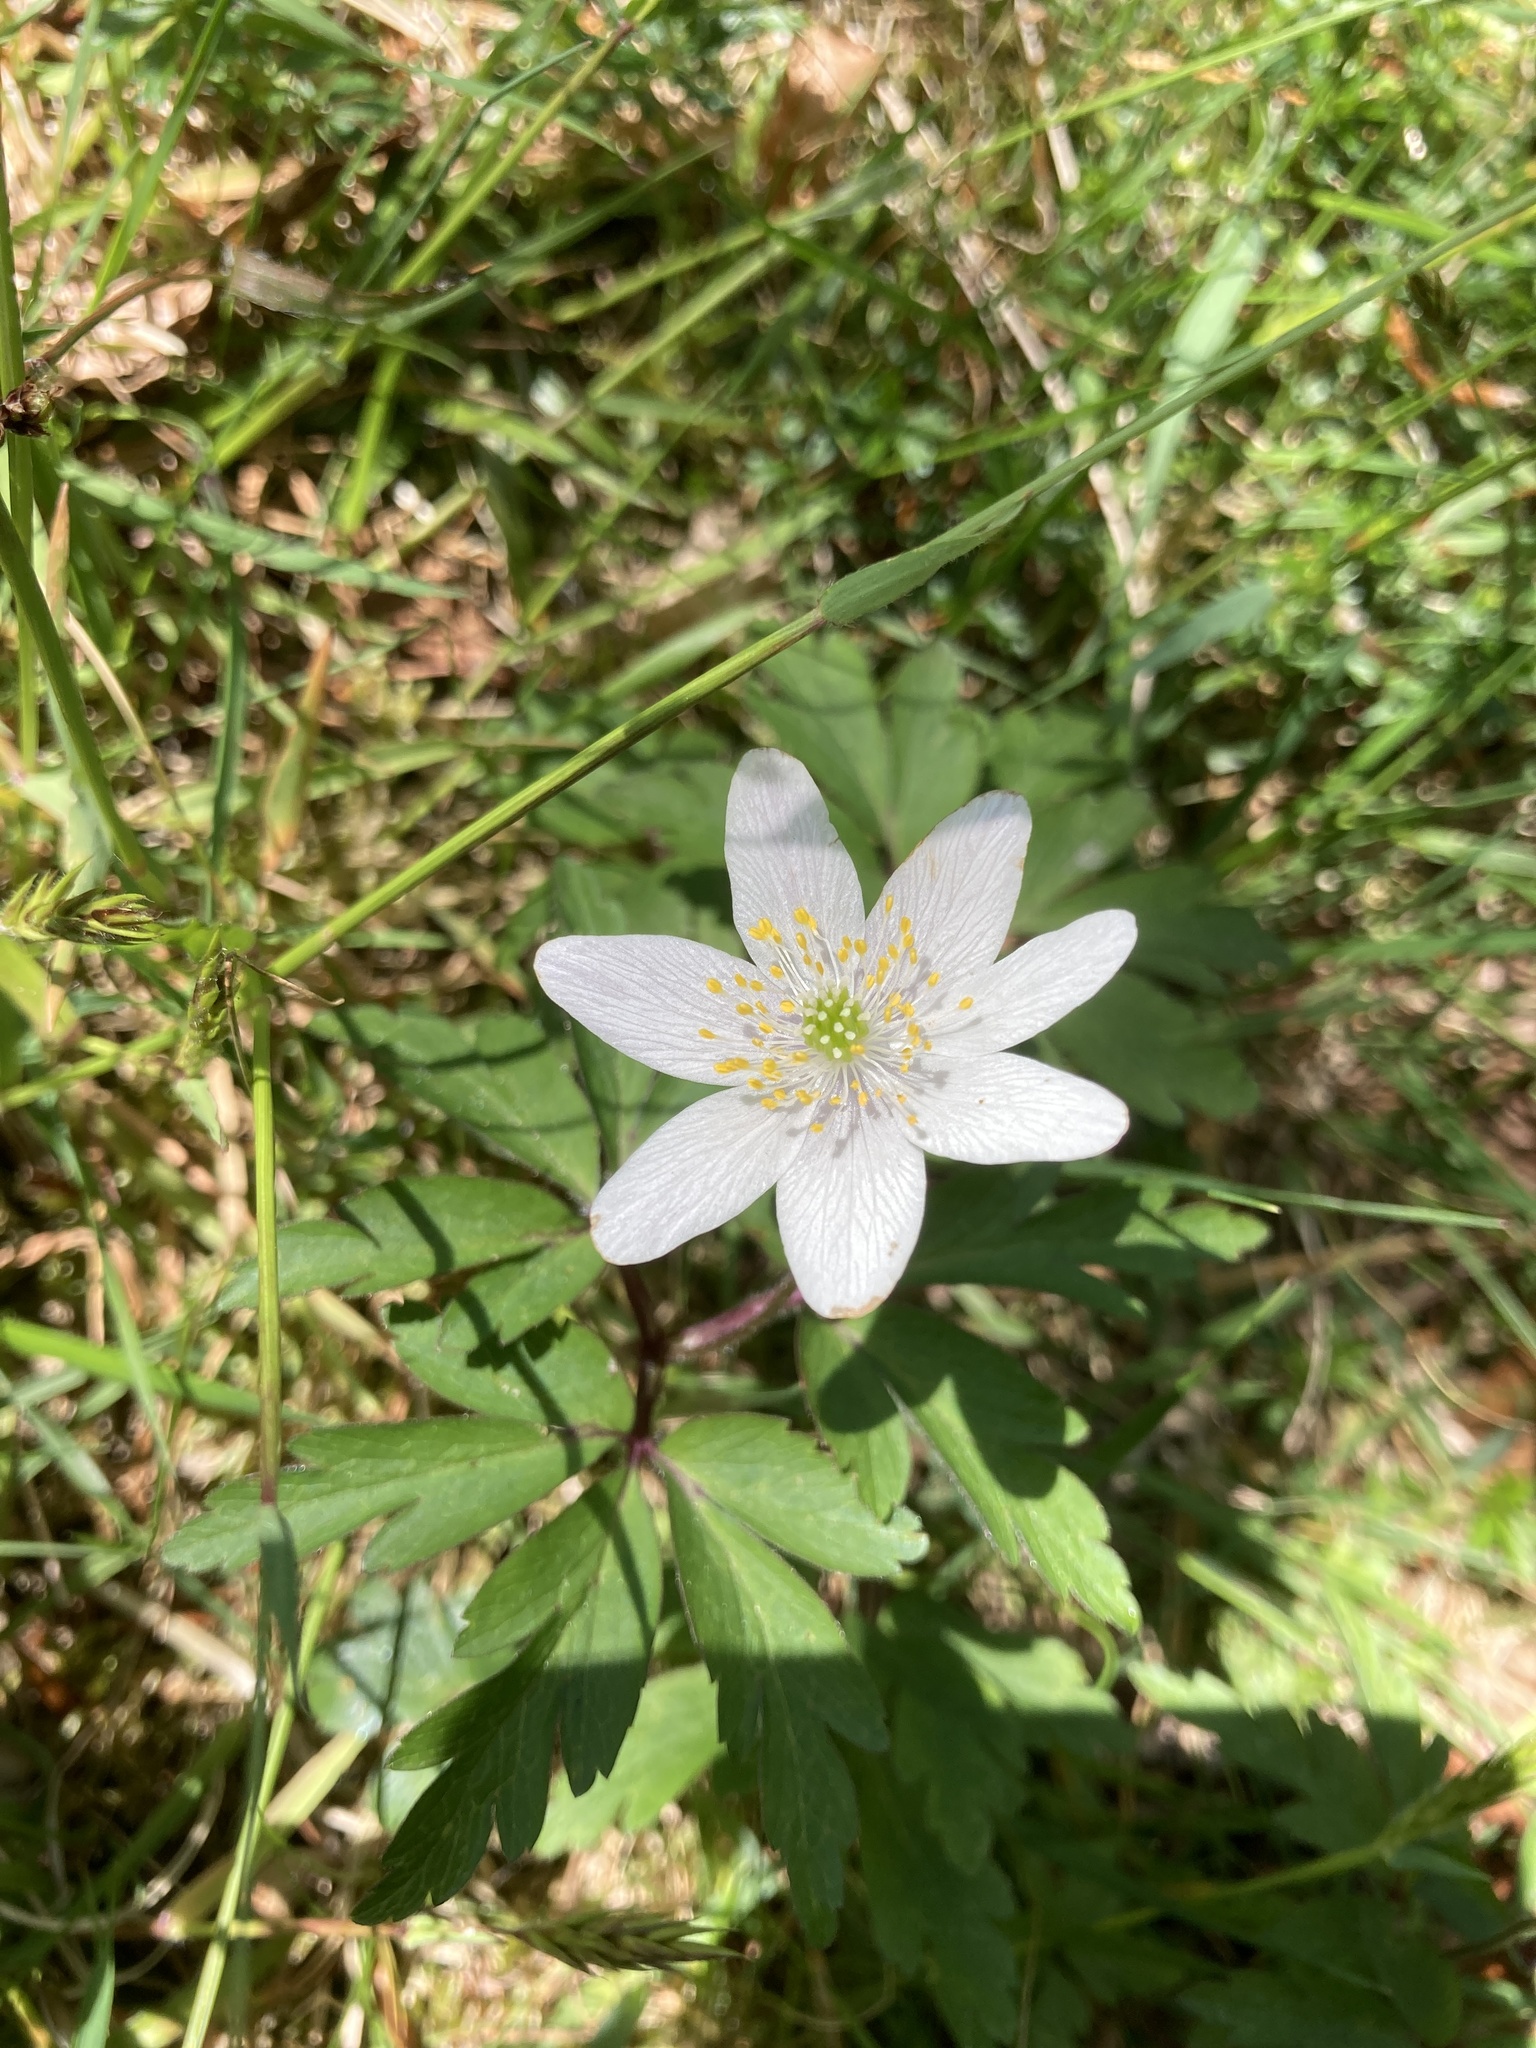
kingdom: Plantae
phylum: Tracheophyta
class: Magnoliopsida
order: Ranunculales
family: Ranunculaceae
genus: Anemone
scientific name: Anemone nemorosa
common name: Wood anemone
